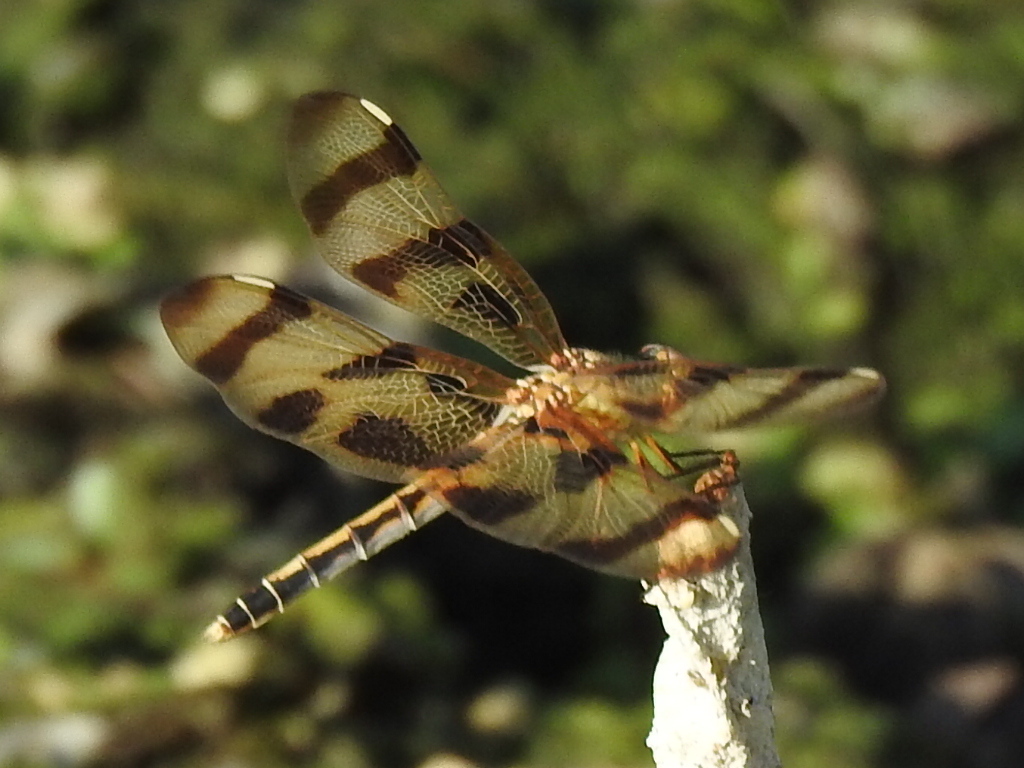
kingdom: Animalia
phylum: Arthropoda
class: Insecta
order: Odonata
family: Libellulidae
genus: Celithemis
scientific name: Celithemis eponina
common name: Halloween pennant
